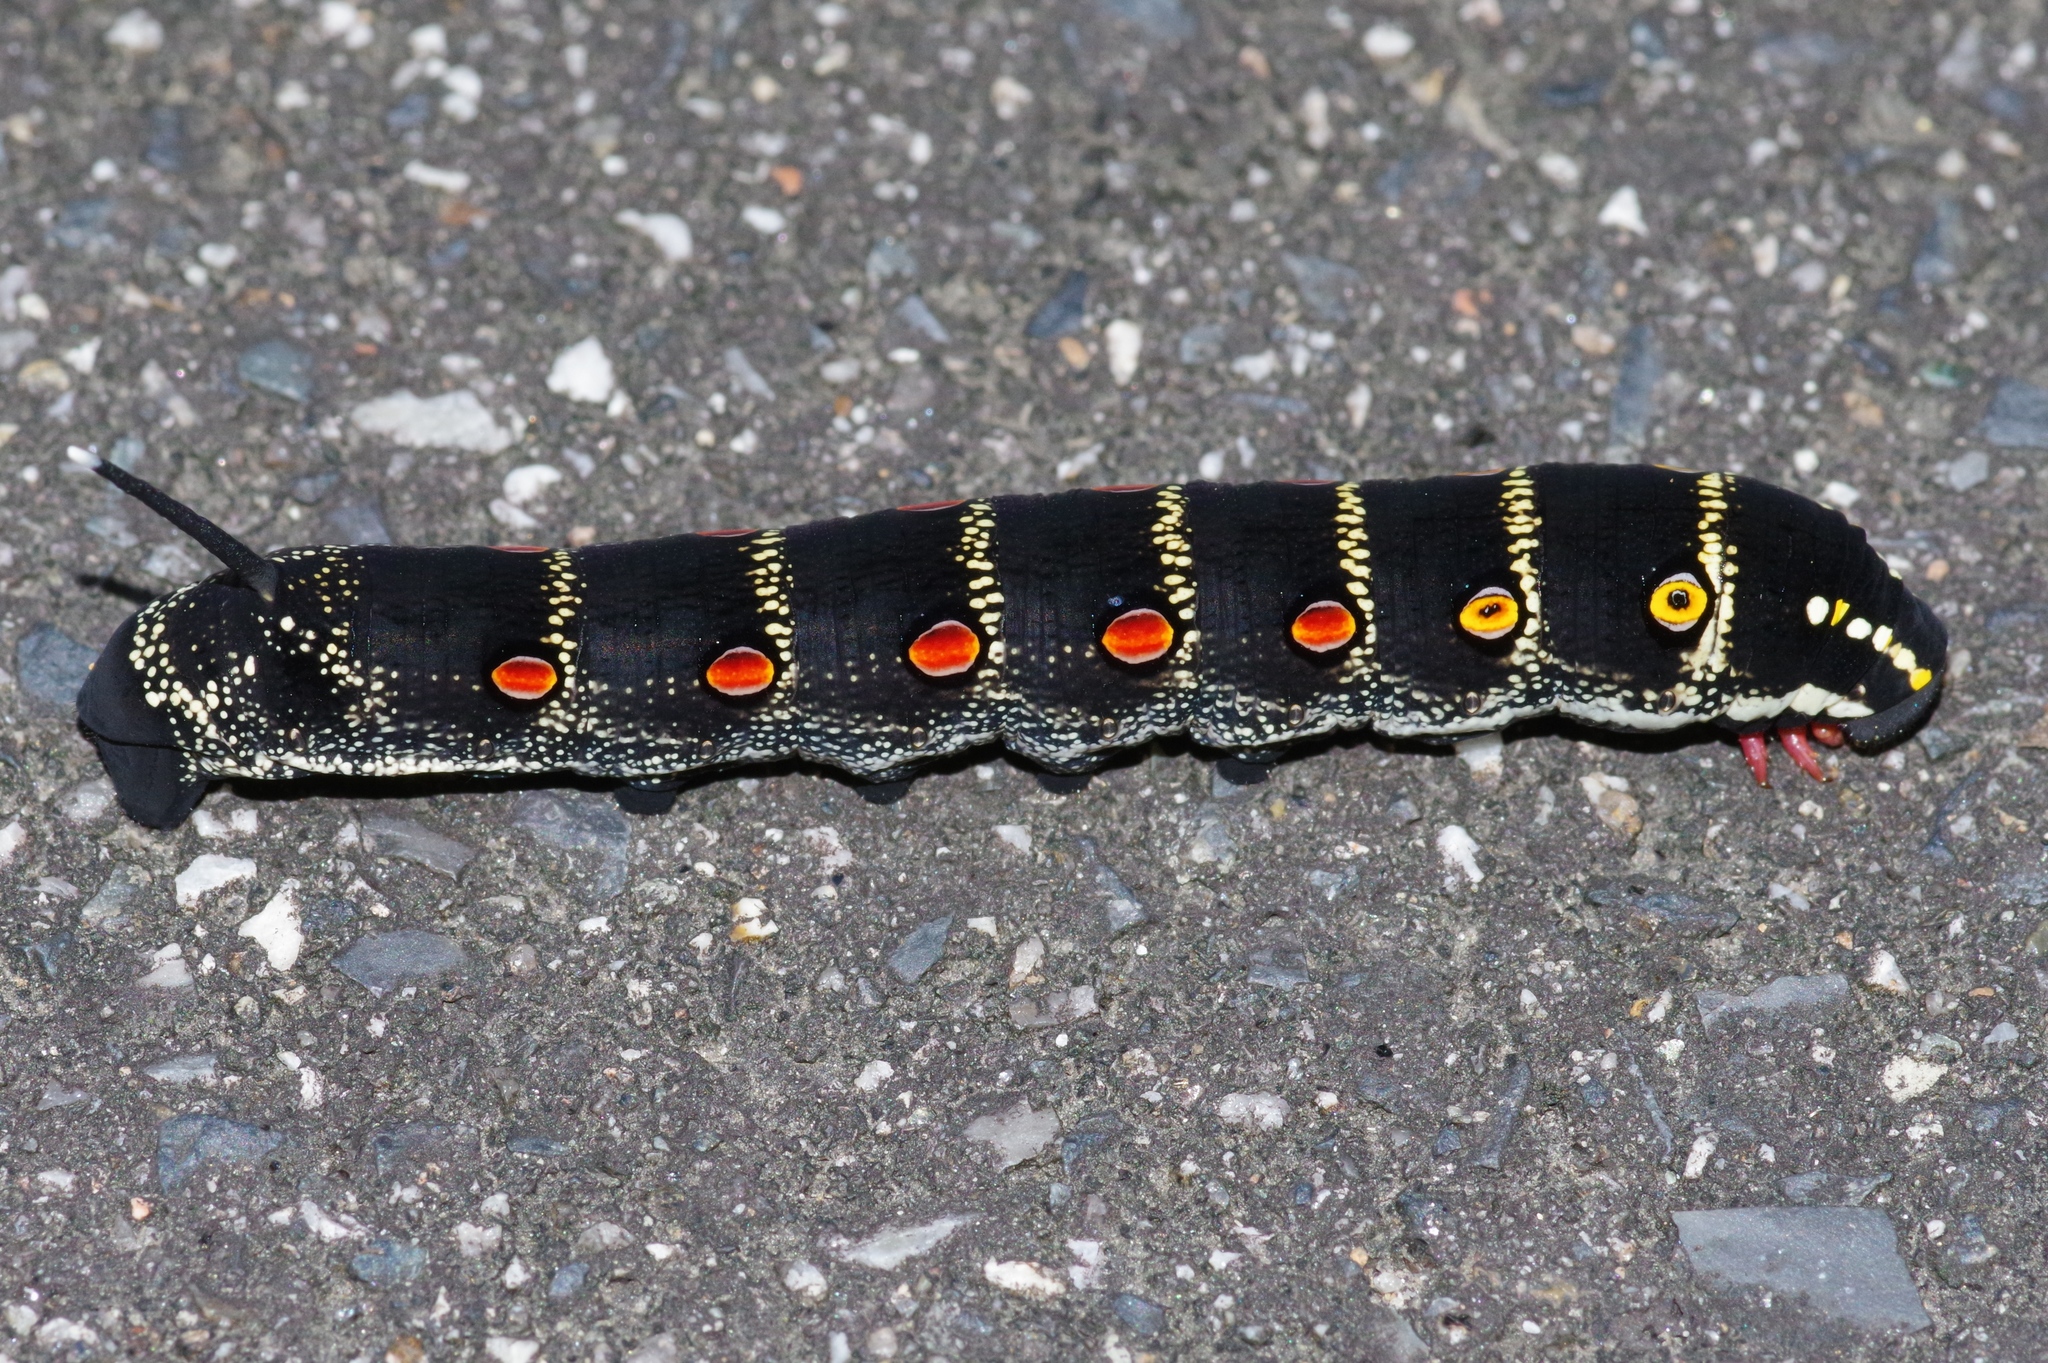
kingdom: Animalia
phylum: Arthropoda
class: Insecta
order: Lepidoptera
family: Sphingidae
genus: Theretra
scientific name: Theretra oldenlandiae
